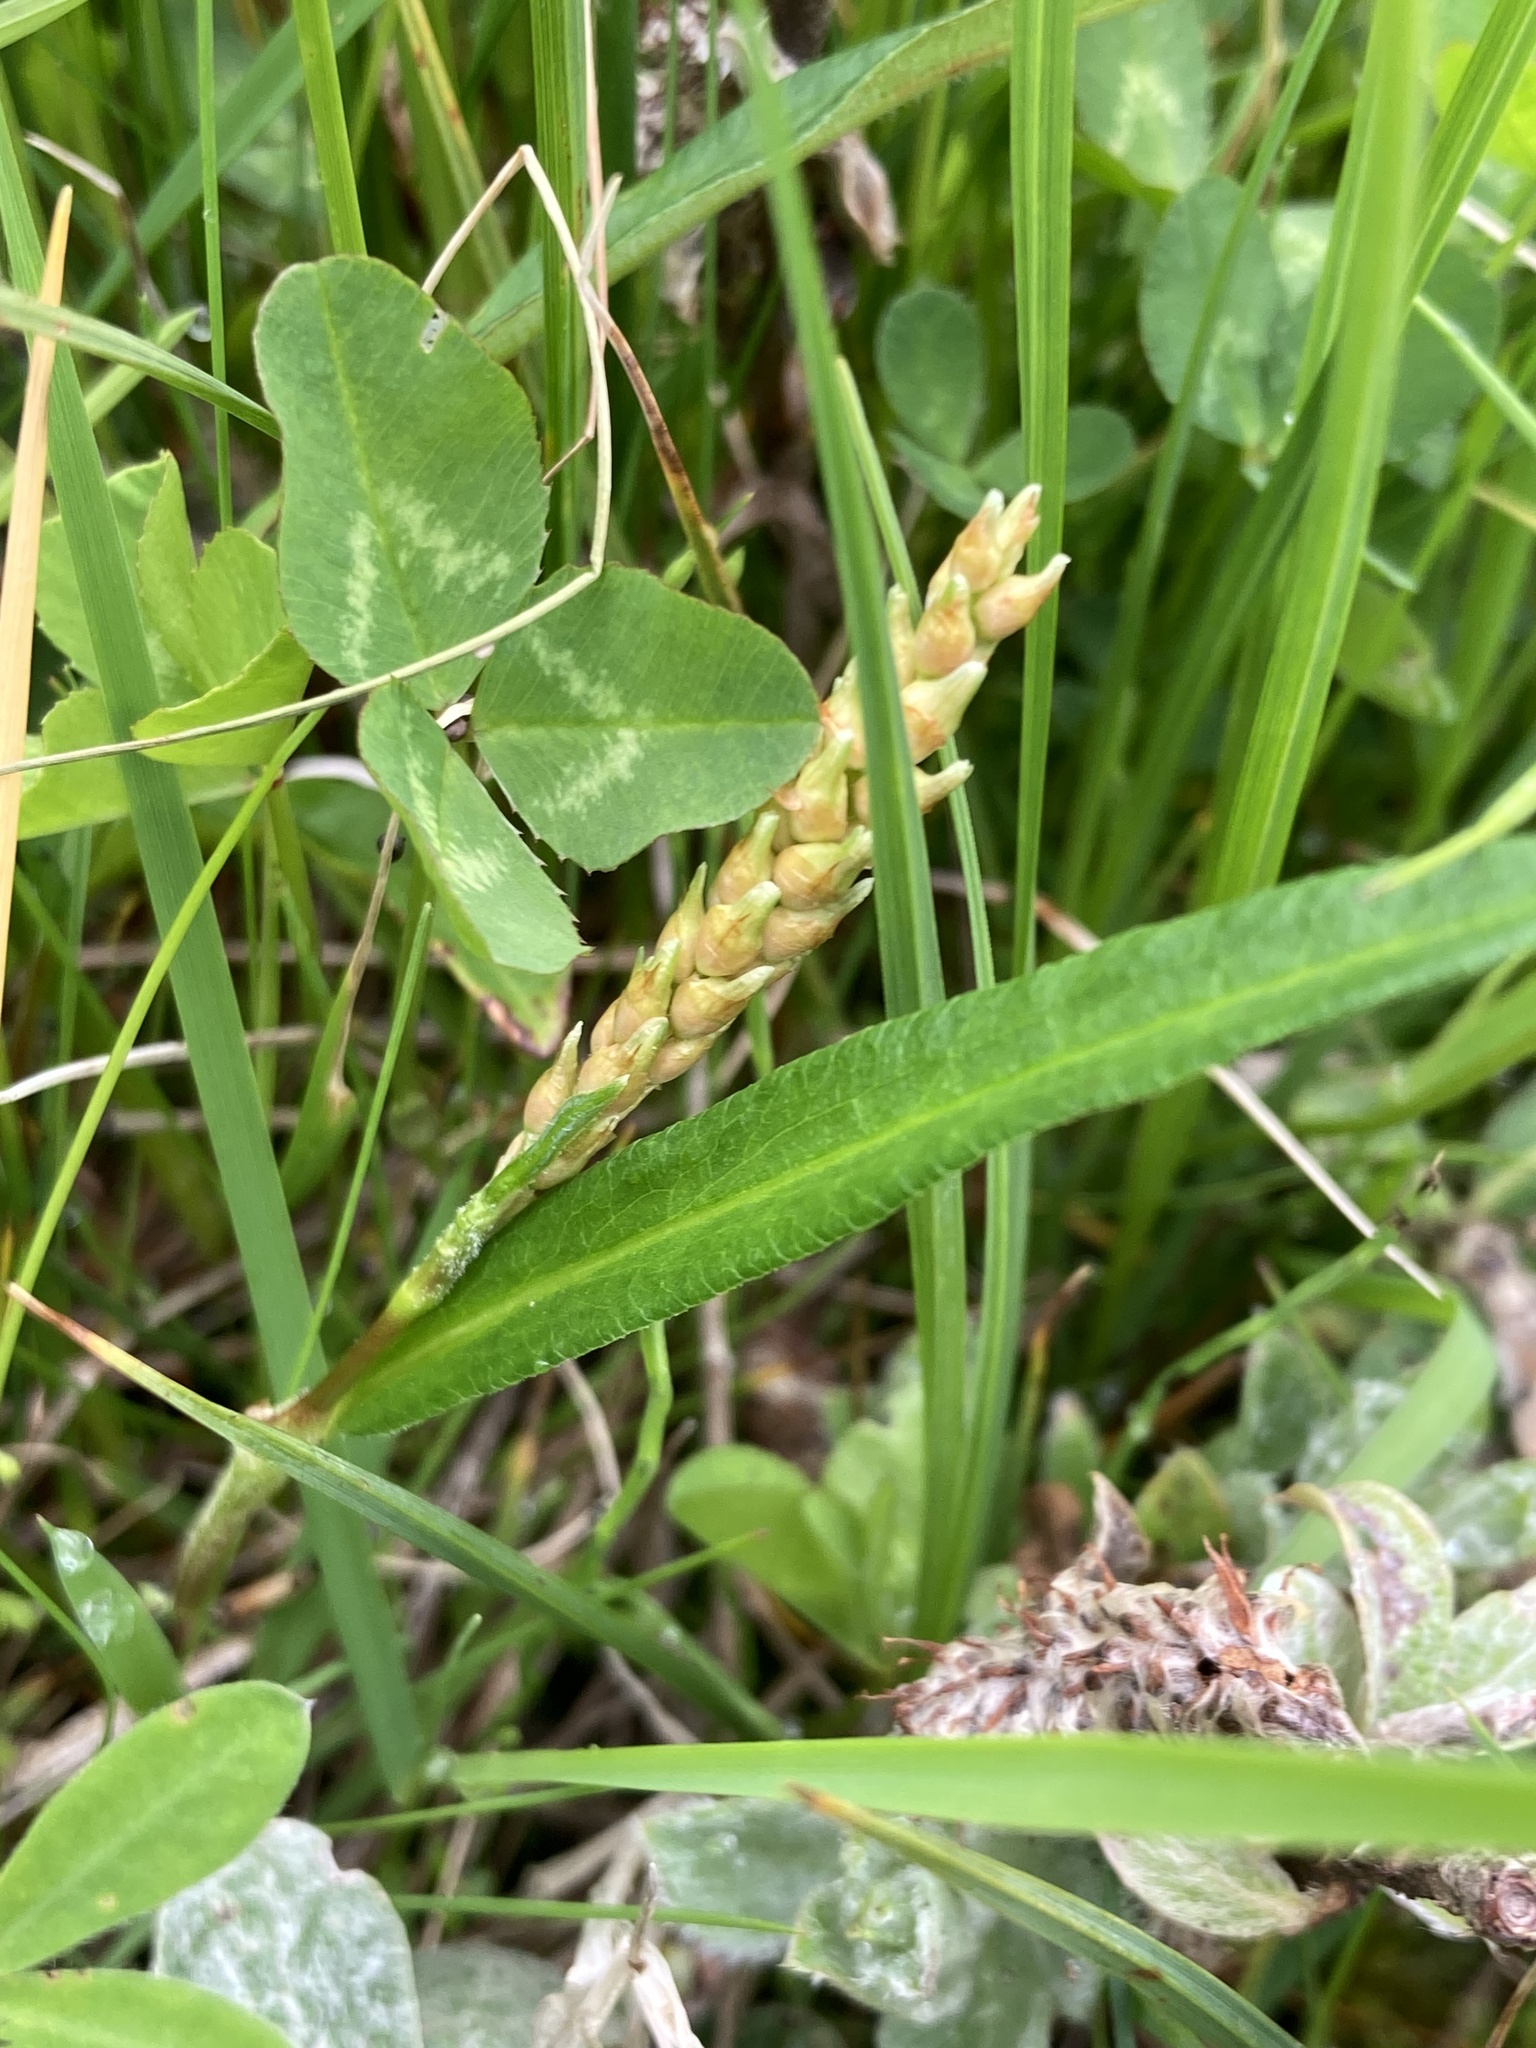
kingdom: Plantae
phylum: Tracheophyta
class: Magnoliopsida
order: Caryophyllales
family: Polygonaceae
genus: Bistorta
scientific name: Bistorta vivipara
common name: Alpine bistort
